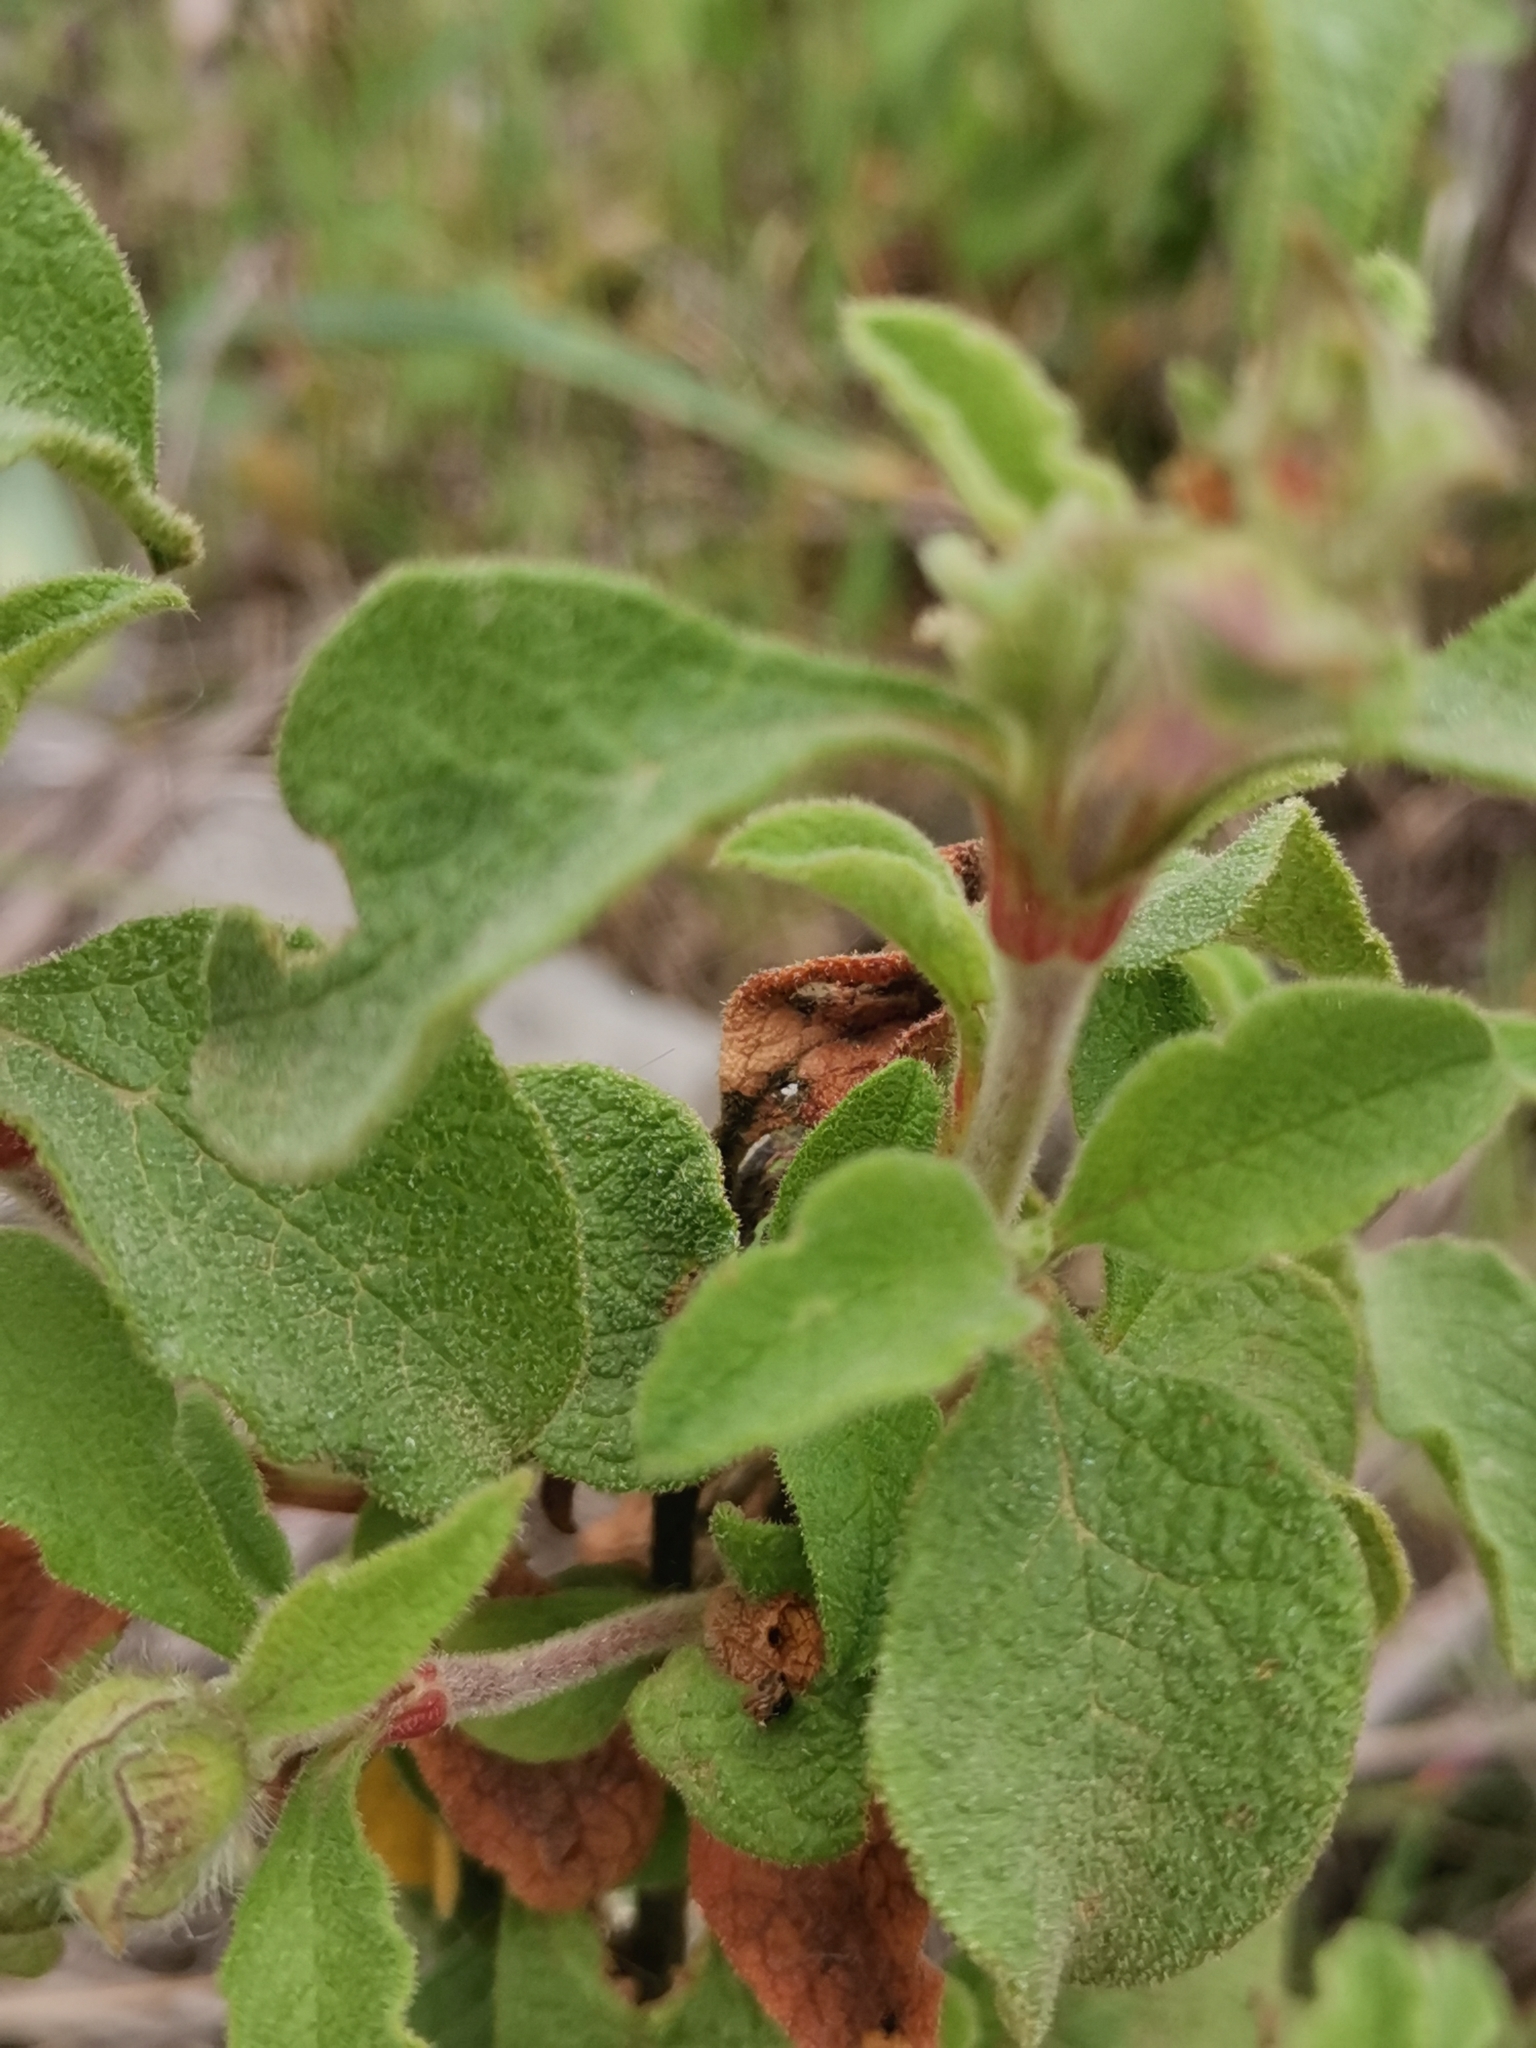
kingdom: Plantae
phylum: Tracheophyta
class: Magnoliopsida
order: Malvales
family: Cistaceae
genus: Cistus
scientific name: Cistus creticus
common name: Cretan rockrose
